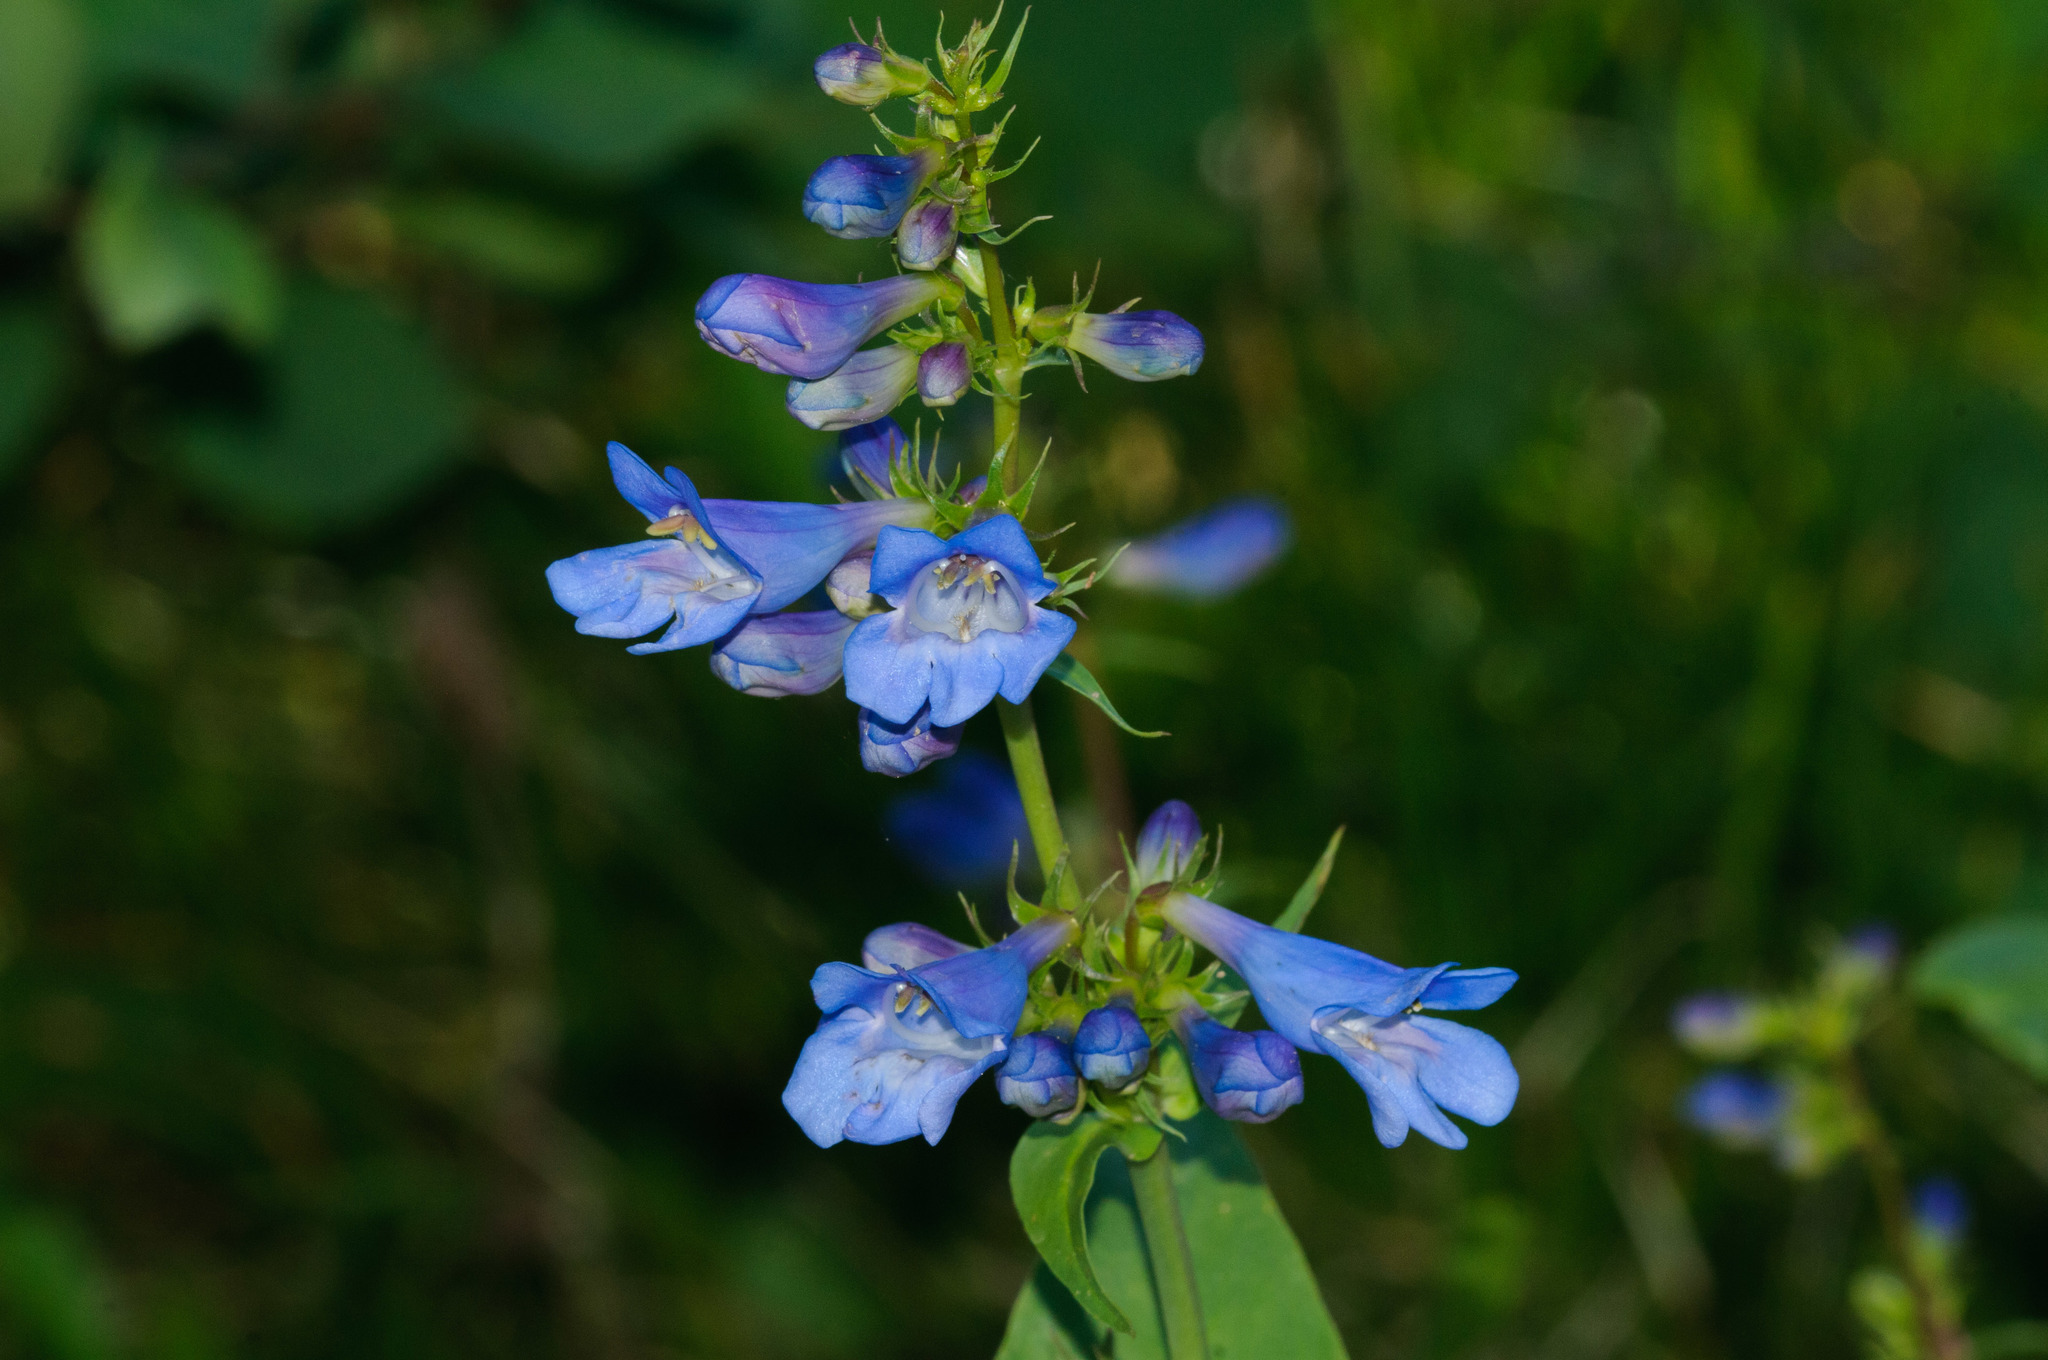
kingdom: Plantae
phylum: Tracheophyta
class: Magnoliopsida
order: Lamiales
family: Plantaginaceae
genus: Penstemon
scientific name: Penstemon cyananthus
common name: Wasatch penstemon
